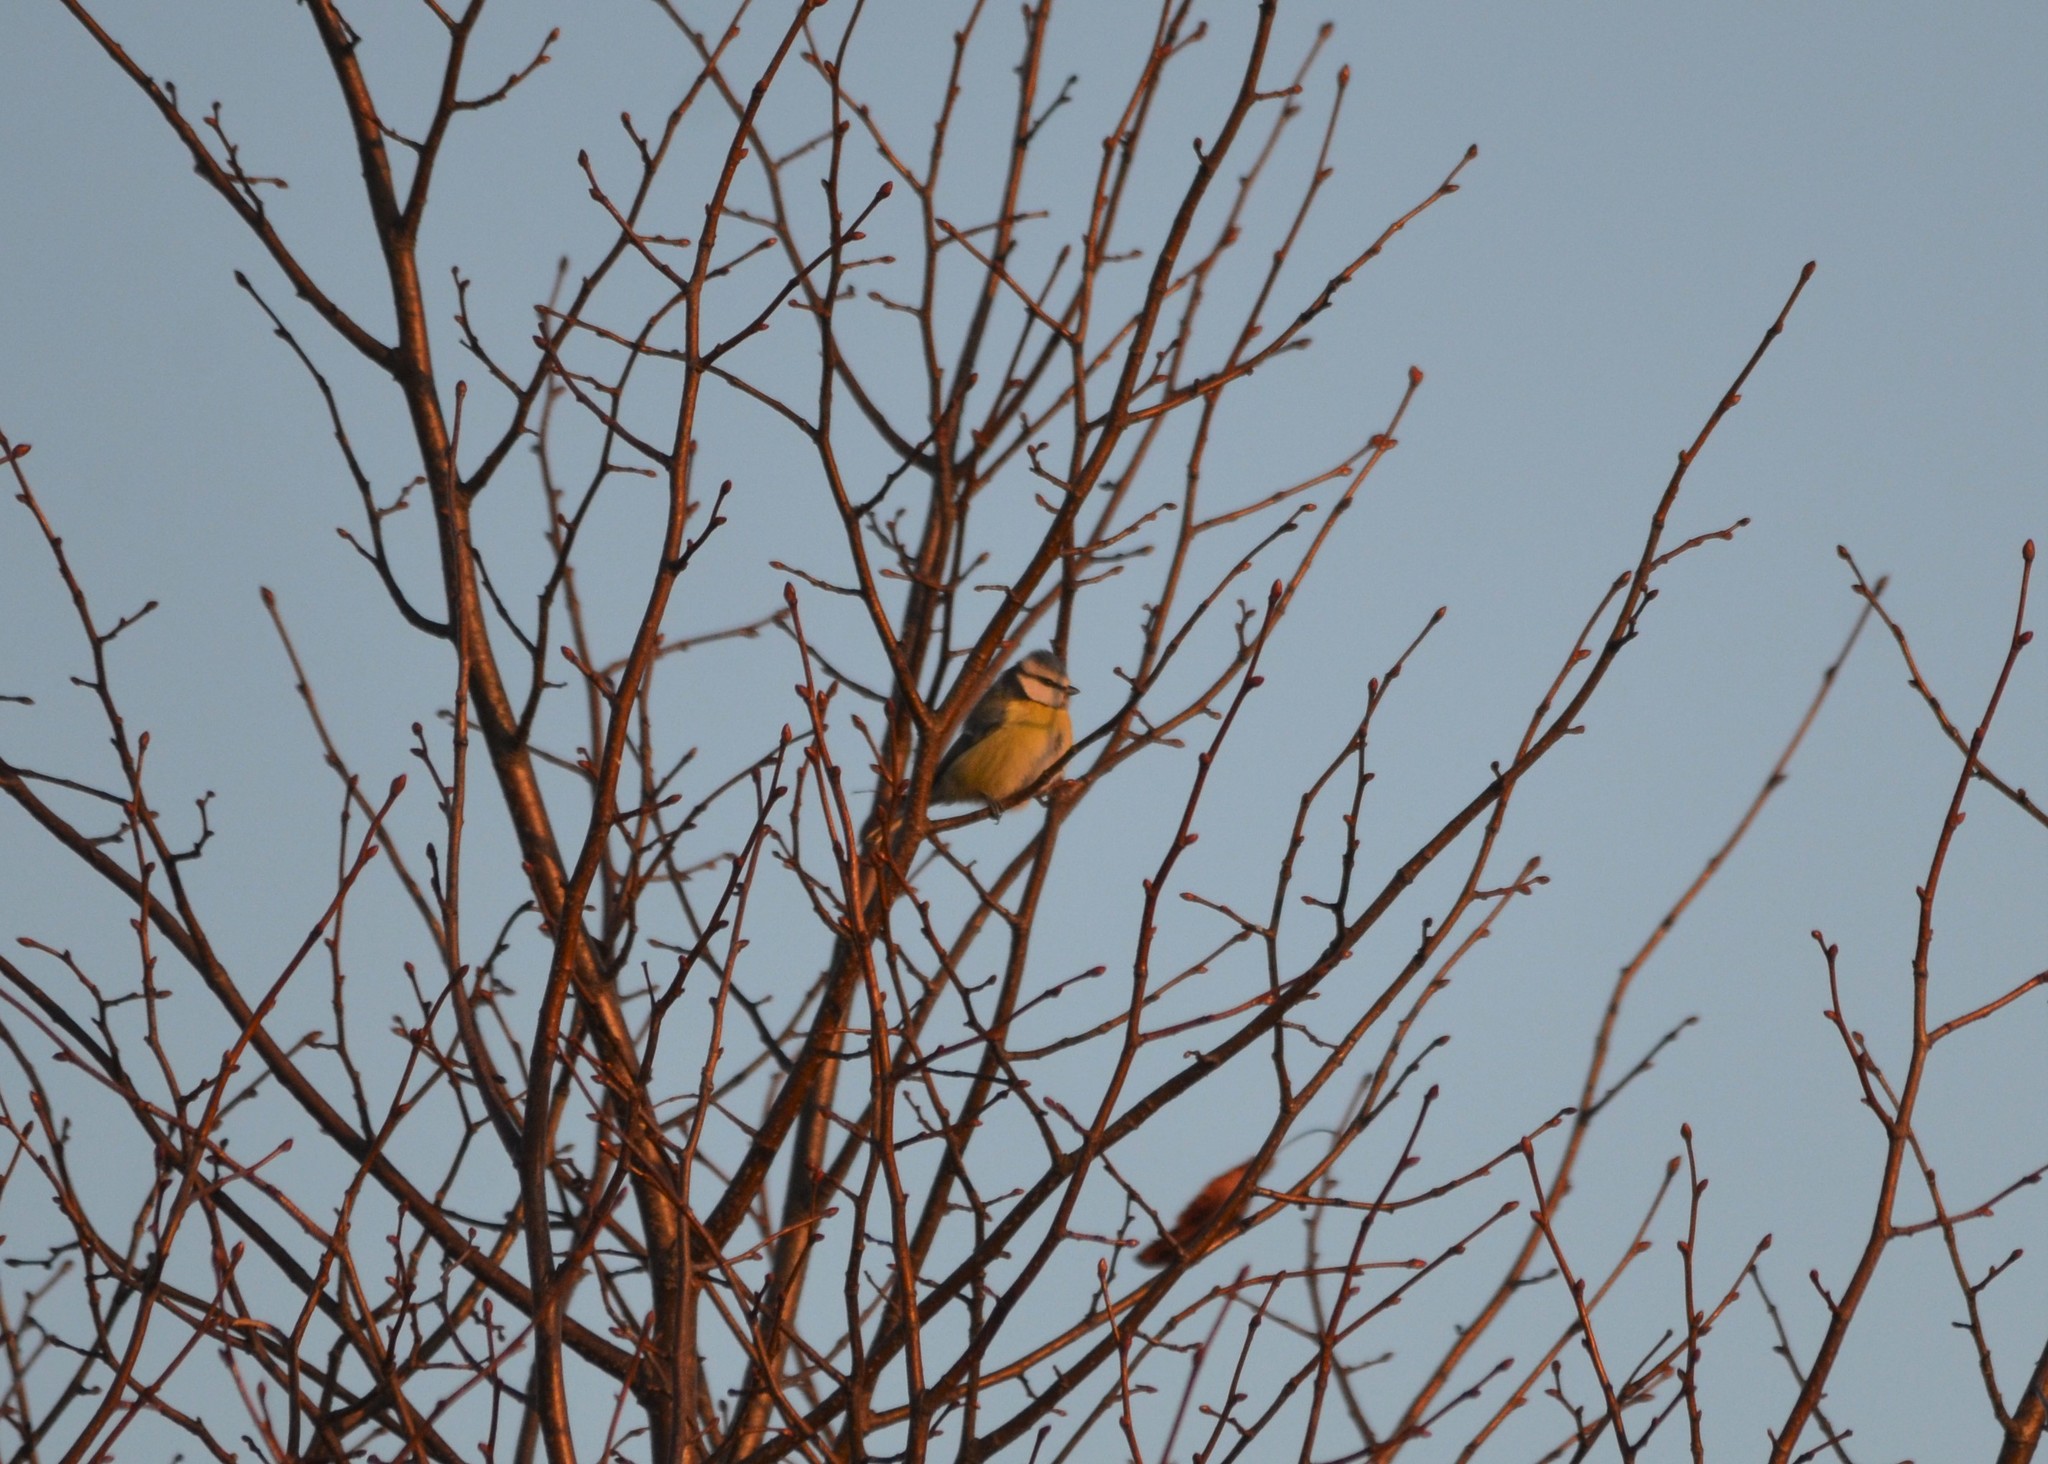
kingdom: Animalia
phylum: Chordata
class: Aves
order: Passeriformes
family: Paridae
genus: Cyanistes
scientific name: Cyanistes caeruleus
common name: Eurasian blue tit
